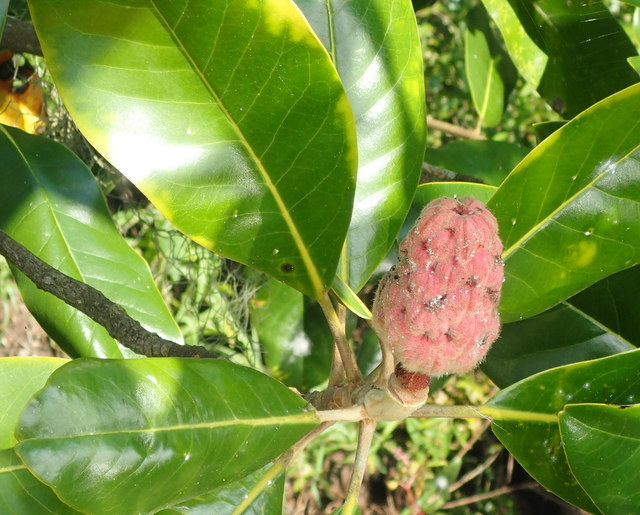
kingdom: Plantae
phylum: Tracheophyta
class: Magnoliopsida
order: Magnoliales
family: Magnoliaceae
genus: Magnolia
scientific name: Magnolia grandiflora
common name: Southern magnolia
